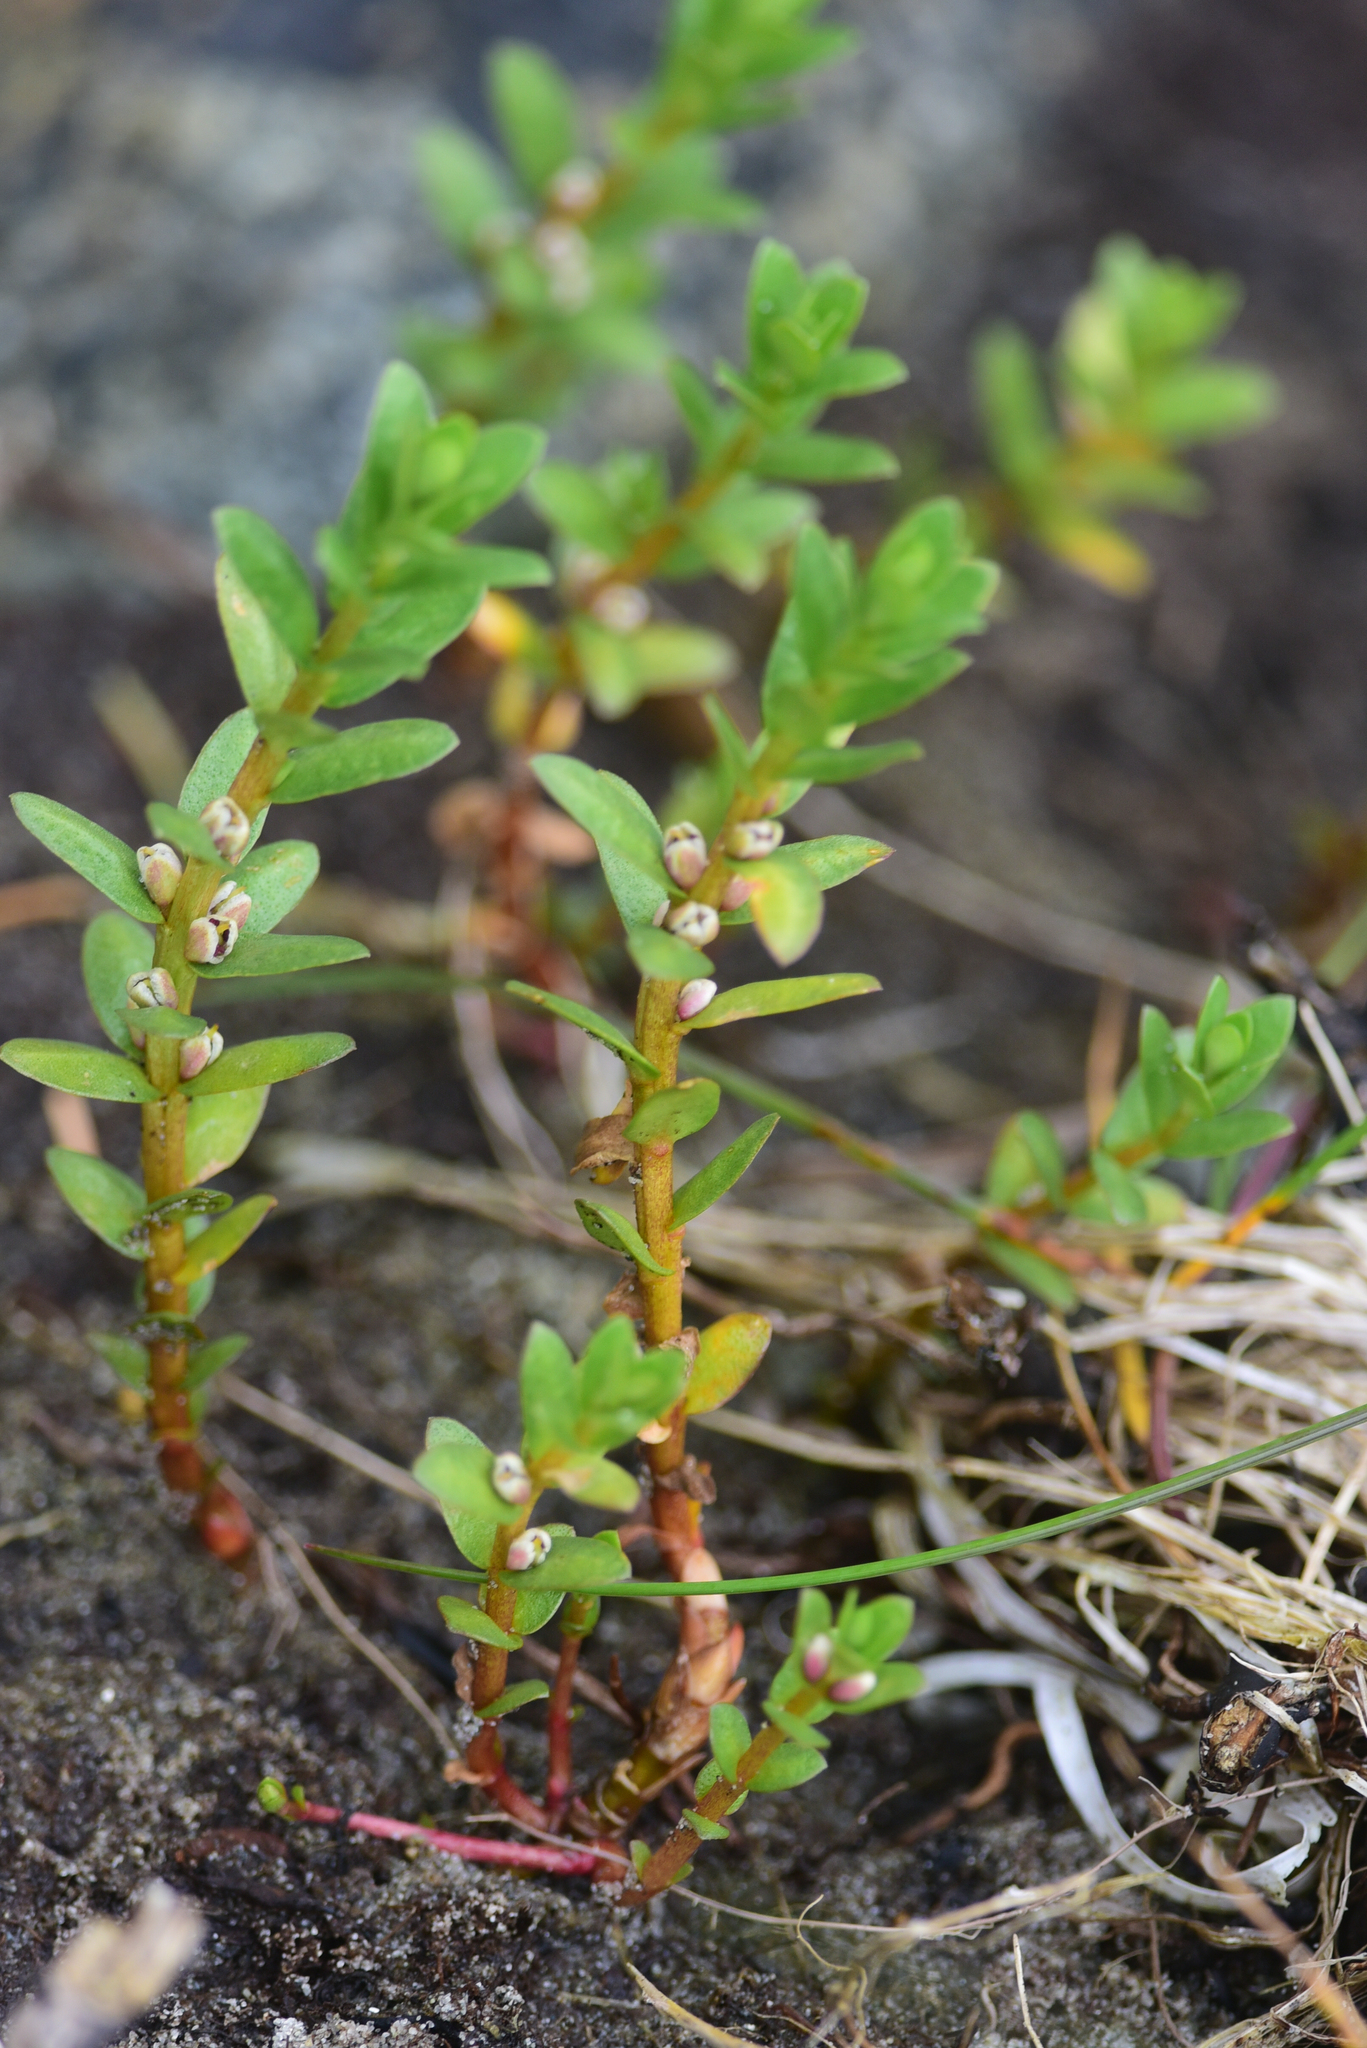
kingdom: Plantae
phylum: Tracheophyta
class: Magnoliopsida
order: Ericales
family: Primulaceae
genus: Lysimachia
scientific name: Lysimachia maritima
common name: Sea milkwort
